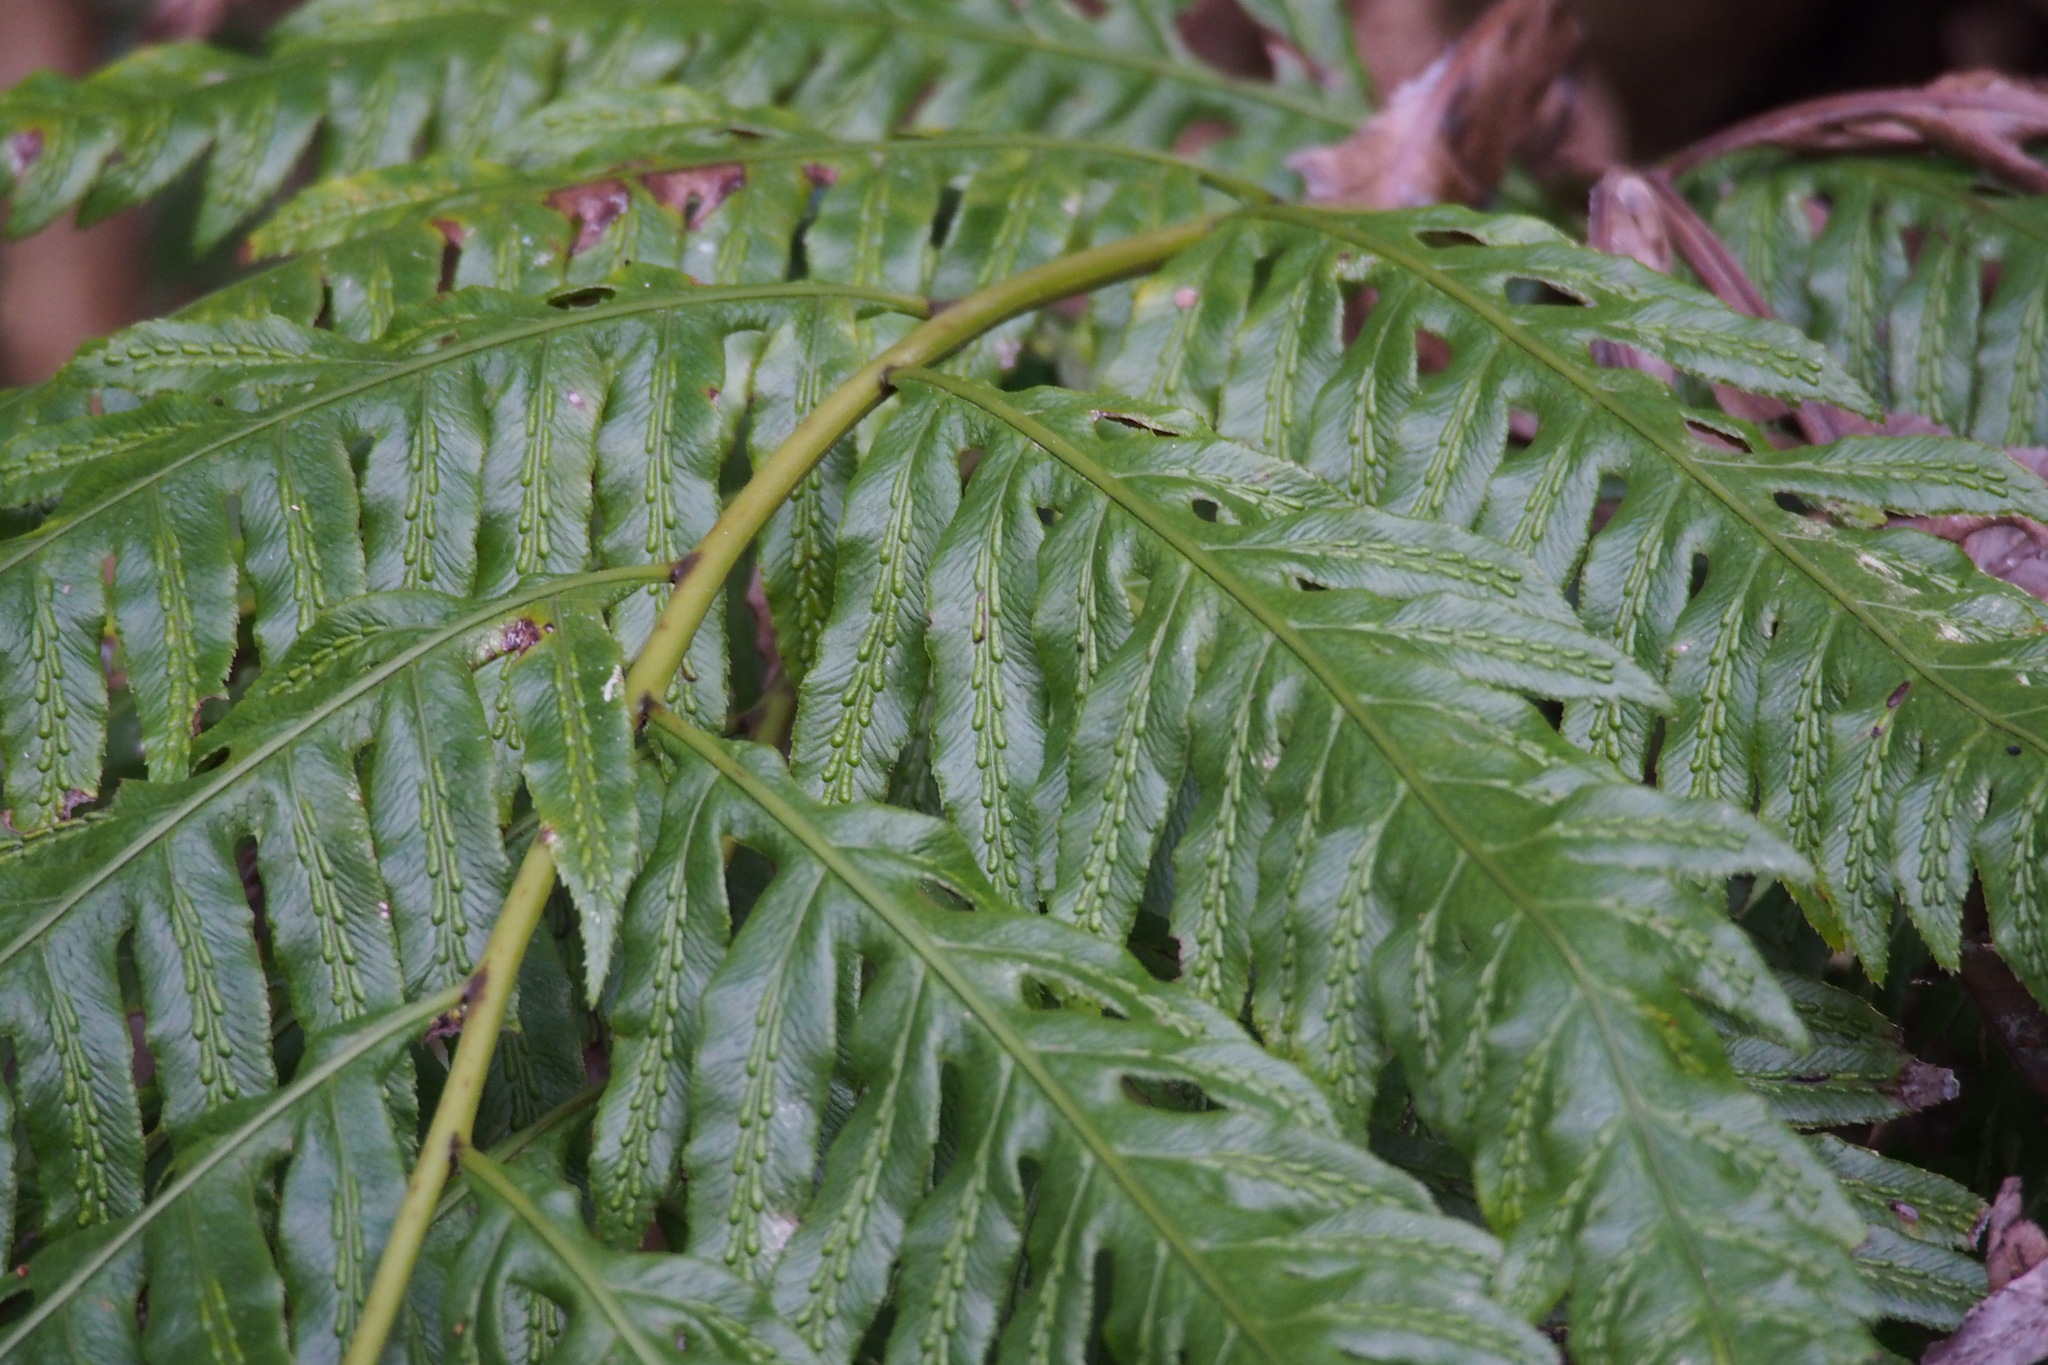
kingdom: Plantae
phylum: Tracheophyta
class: Polypodiopsida
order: Polypodiales
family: Blechnaceae
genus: Woodwardia
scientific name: Woodwardia orientalis
